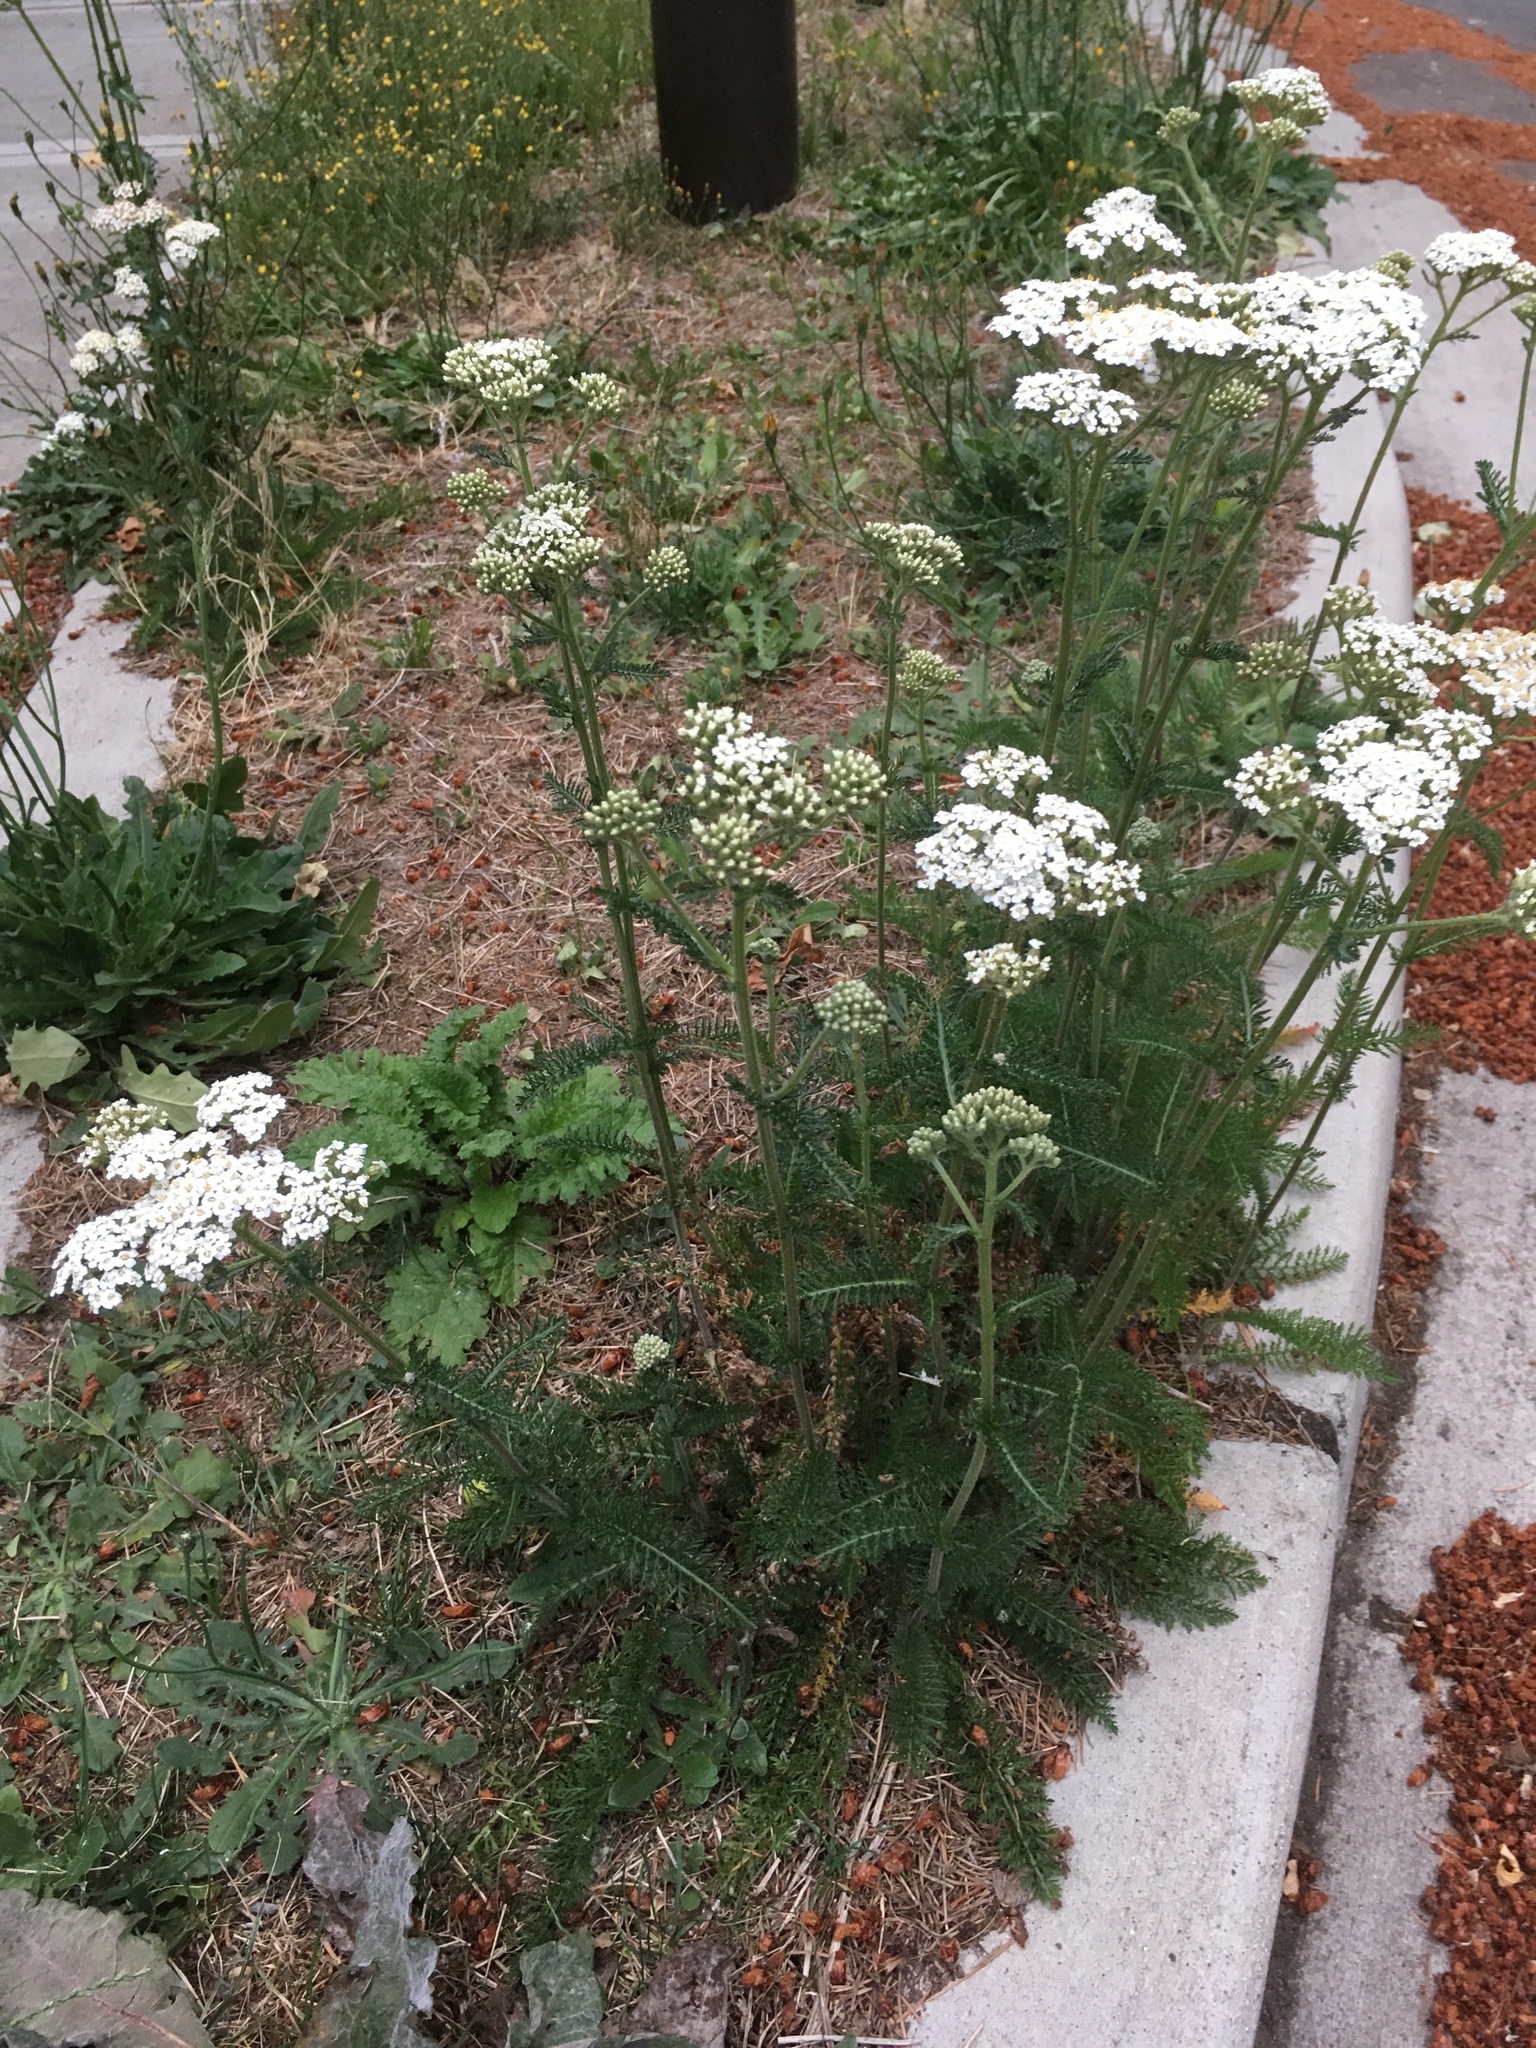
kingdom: Plantae
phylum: Tracheophyta
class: Magnoliopsida
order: Asterales
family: Asteraceae
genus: Achillea
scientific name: Achillea millefolium
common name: Yarrow
